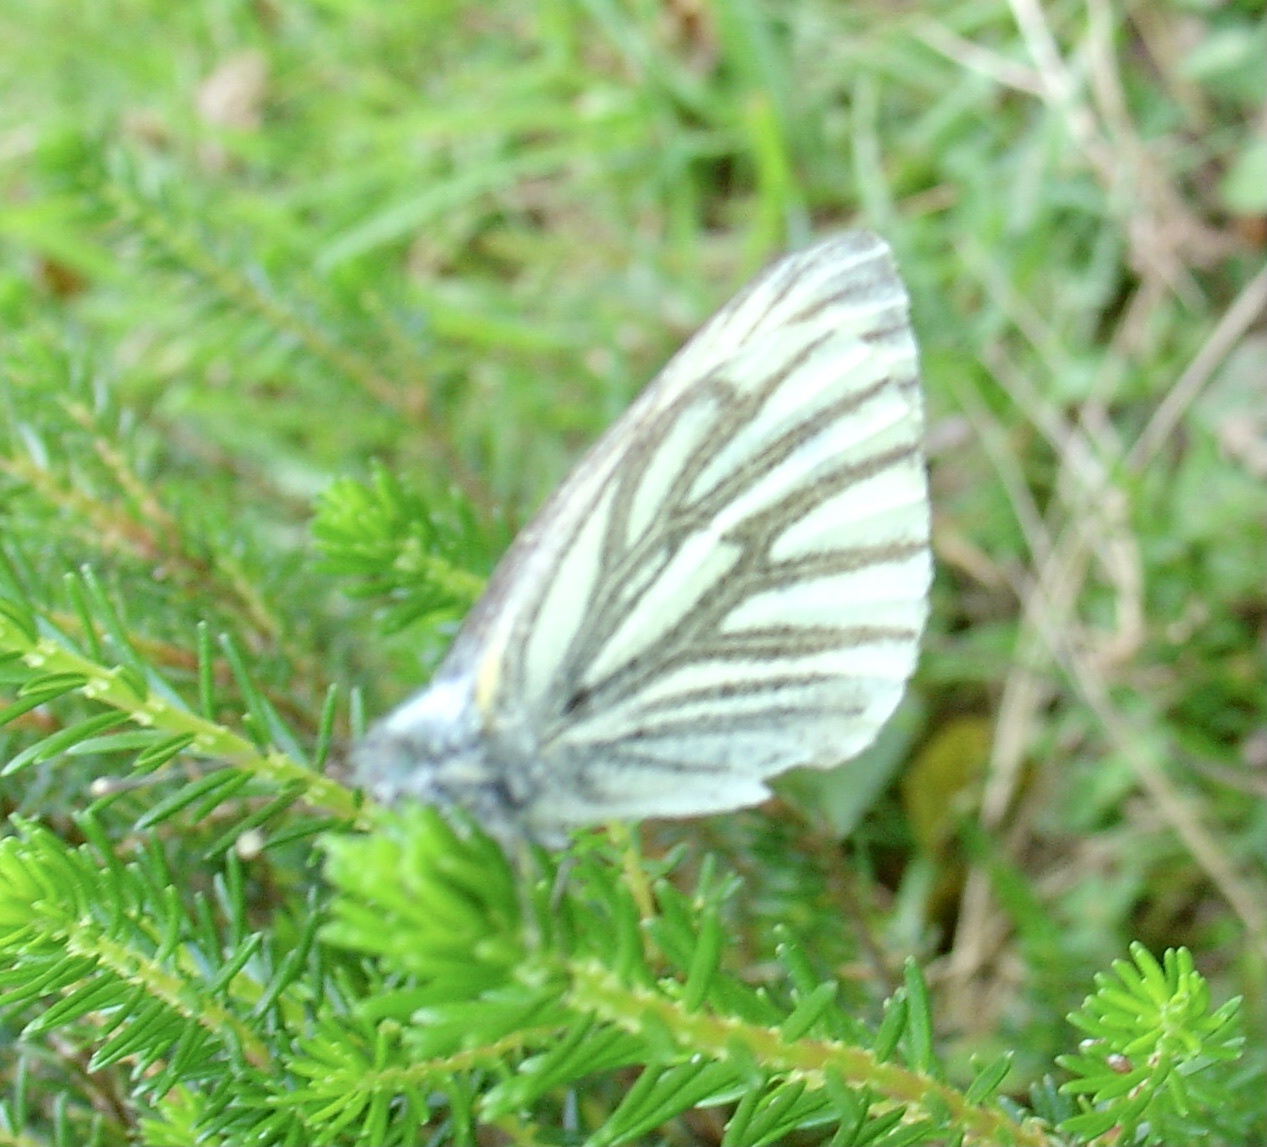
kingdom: Animalia
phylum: Arthropoda
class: Insecta
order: Lepidoptera
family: Pieridae
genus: Pieris
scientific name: Pieris napi
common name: Green-veined white
